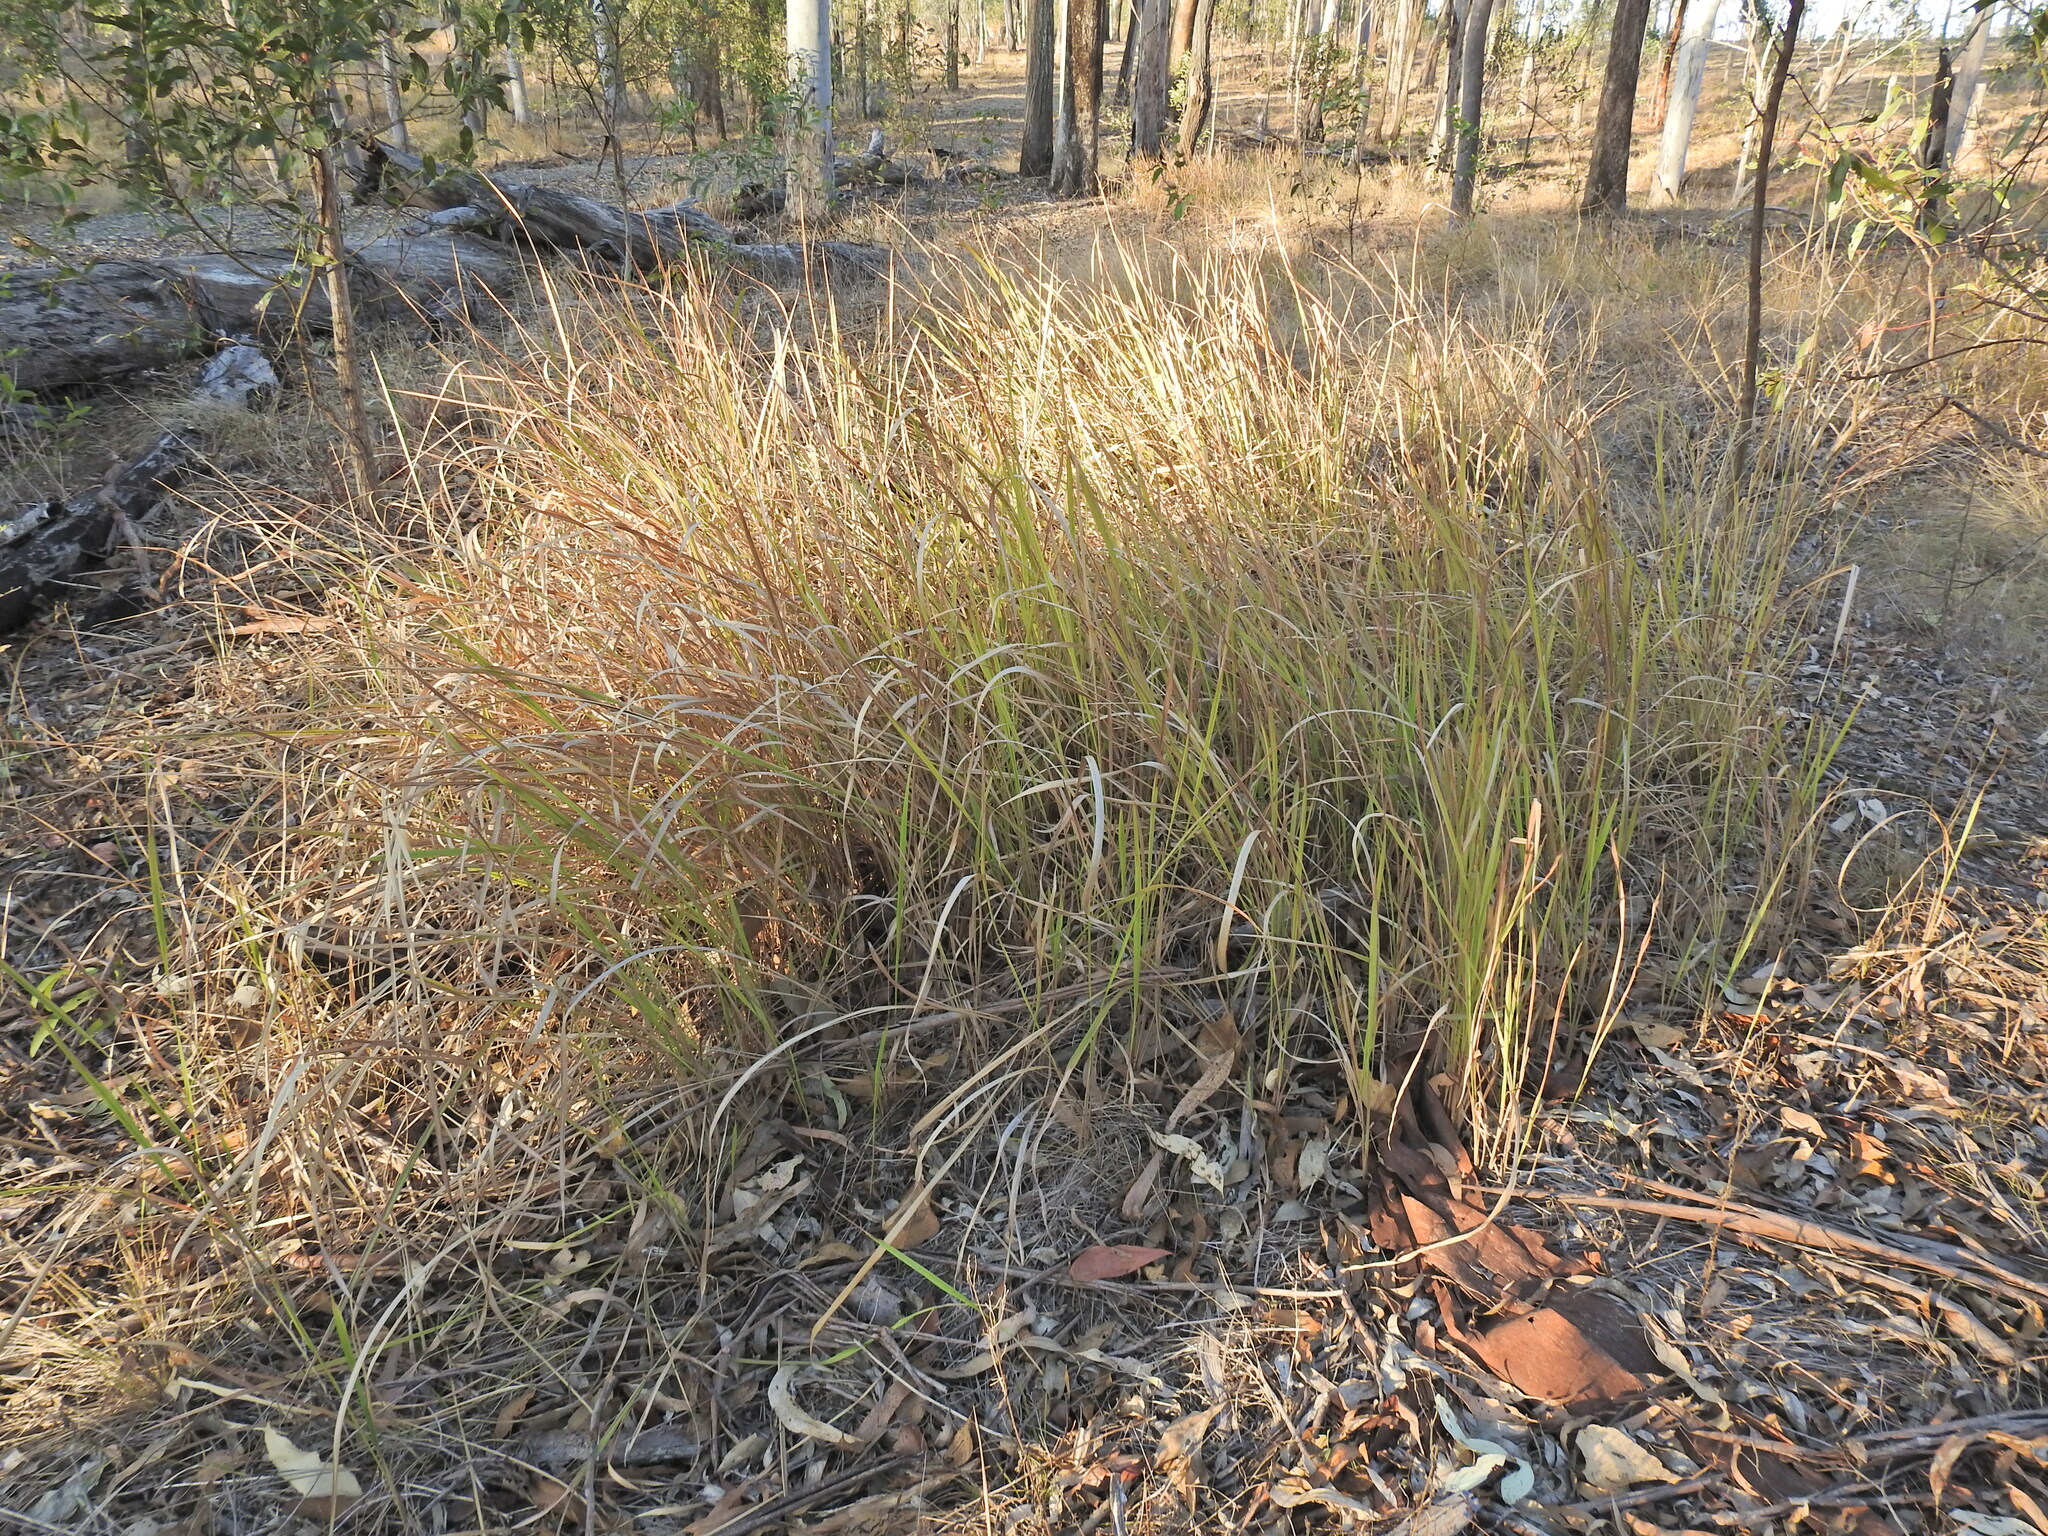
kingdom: Plantae
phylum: Tracheophyta
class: Liliopsida
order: Poales
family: Poaceae
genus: Imperata
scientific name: Imperata cylindrica
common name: Cogongrass
